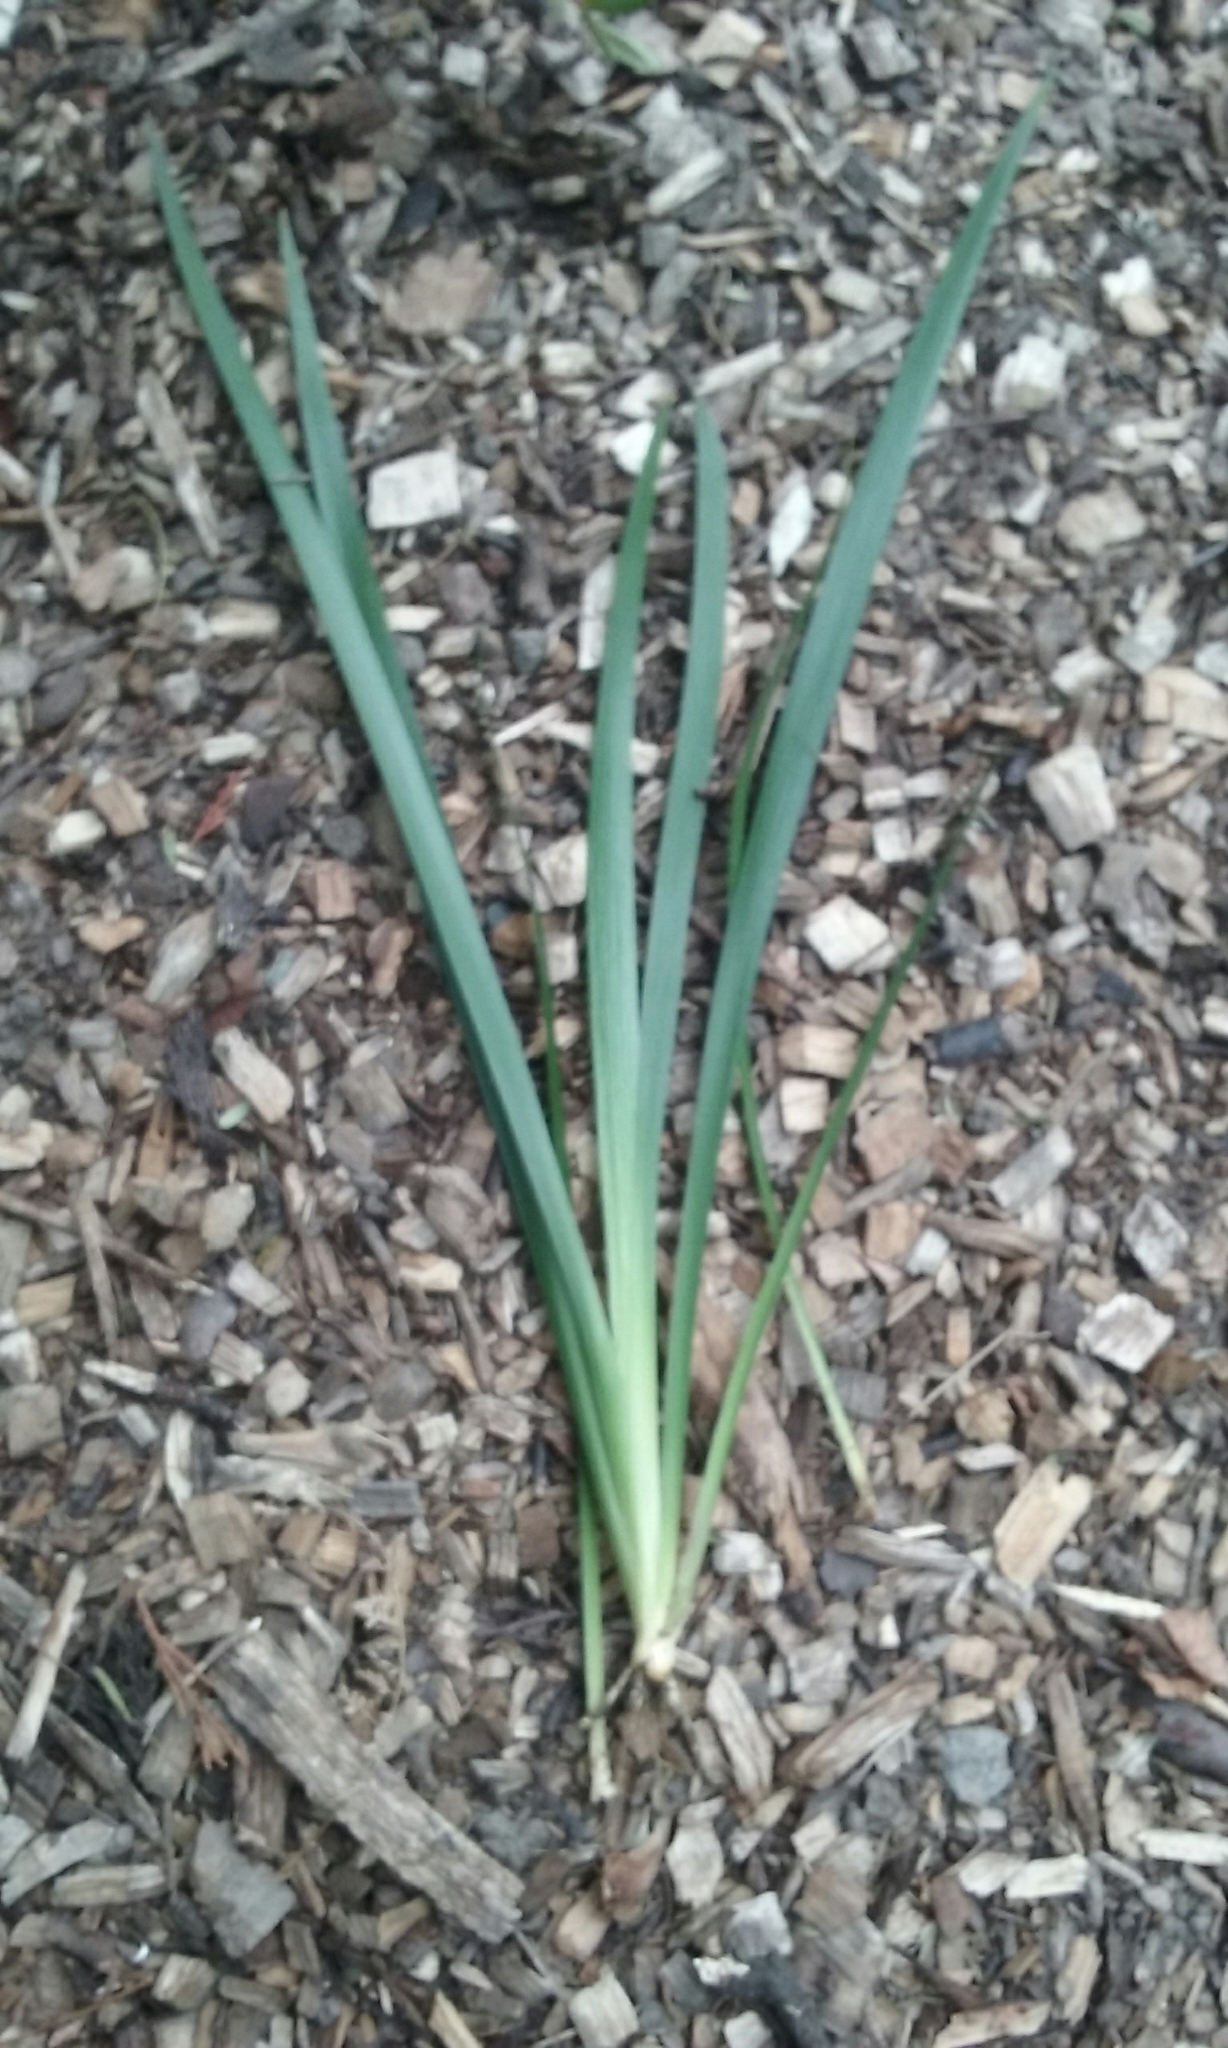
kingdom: Plantae
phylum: Tracheophyta
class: Liliopsida
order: Asparagales
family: Iridaceae
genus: Iris
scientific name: Iris foetidissima
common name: Stinking iris
